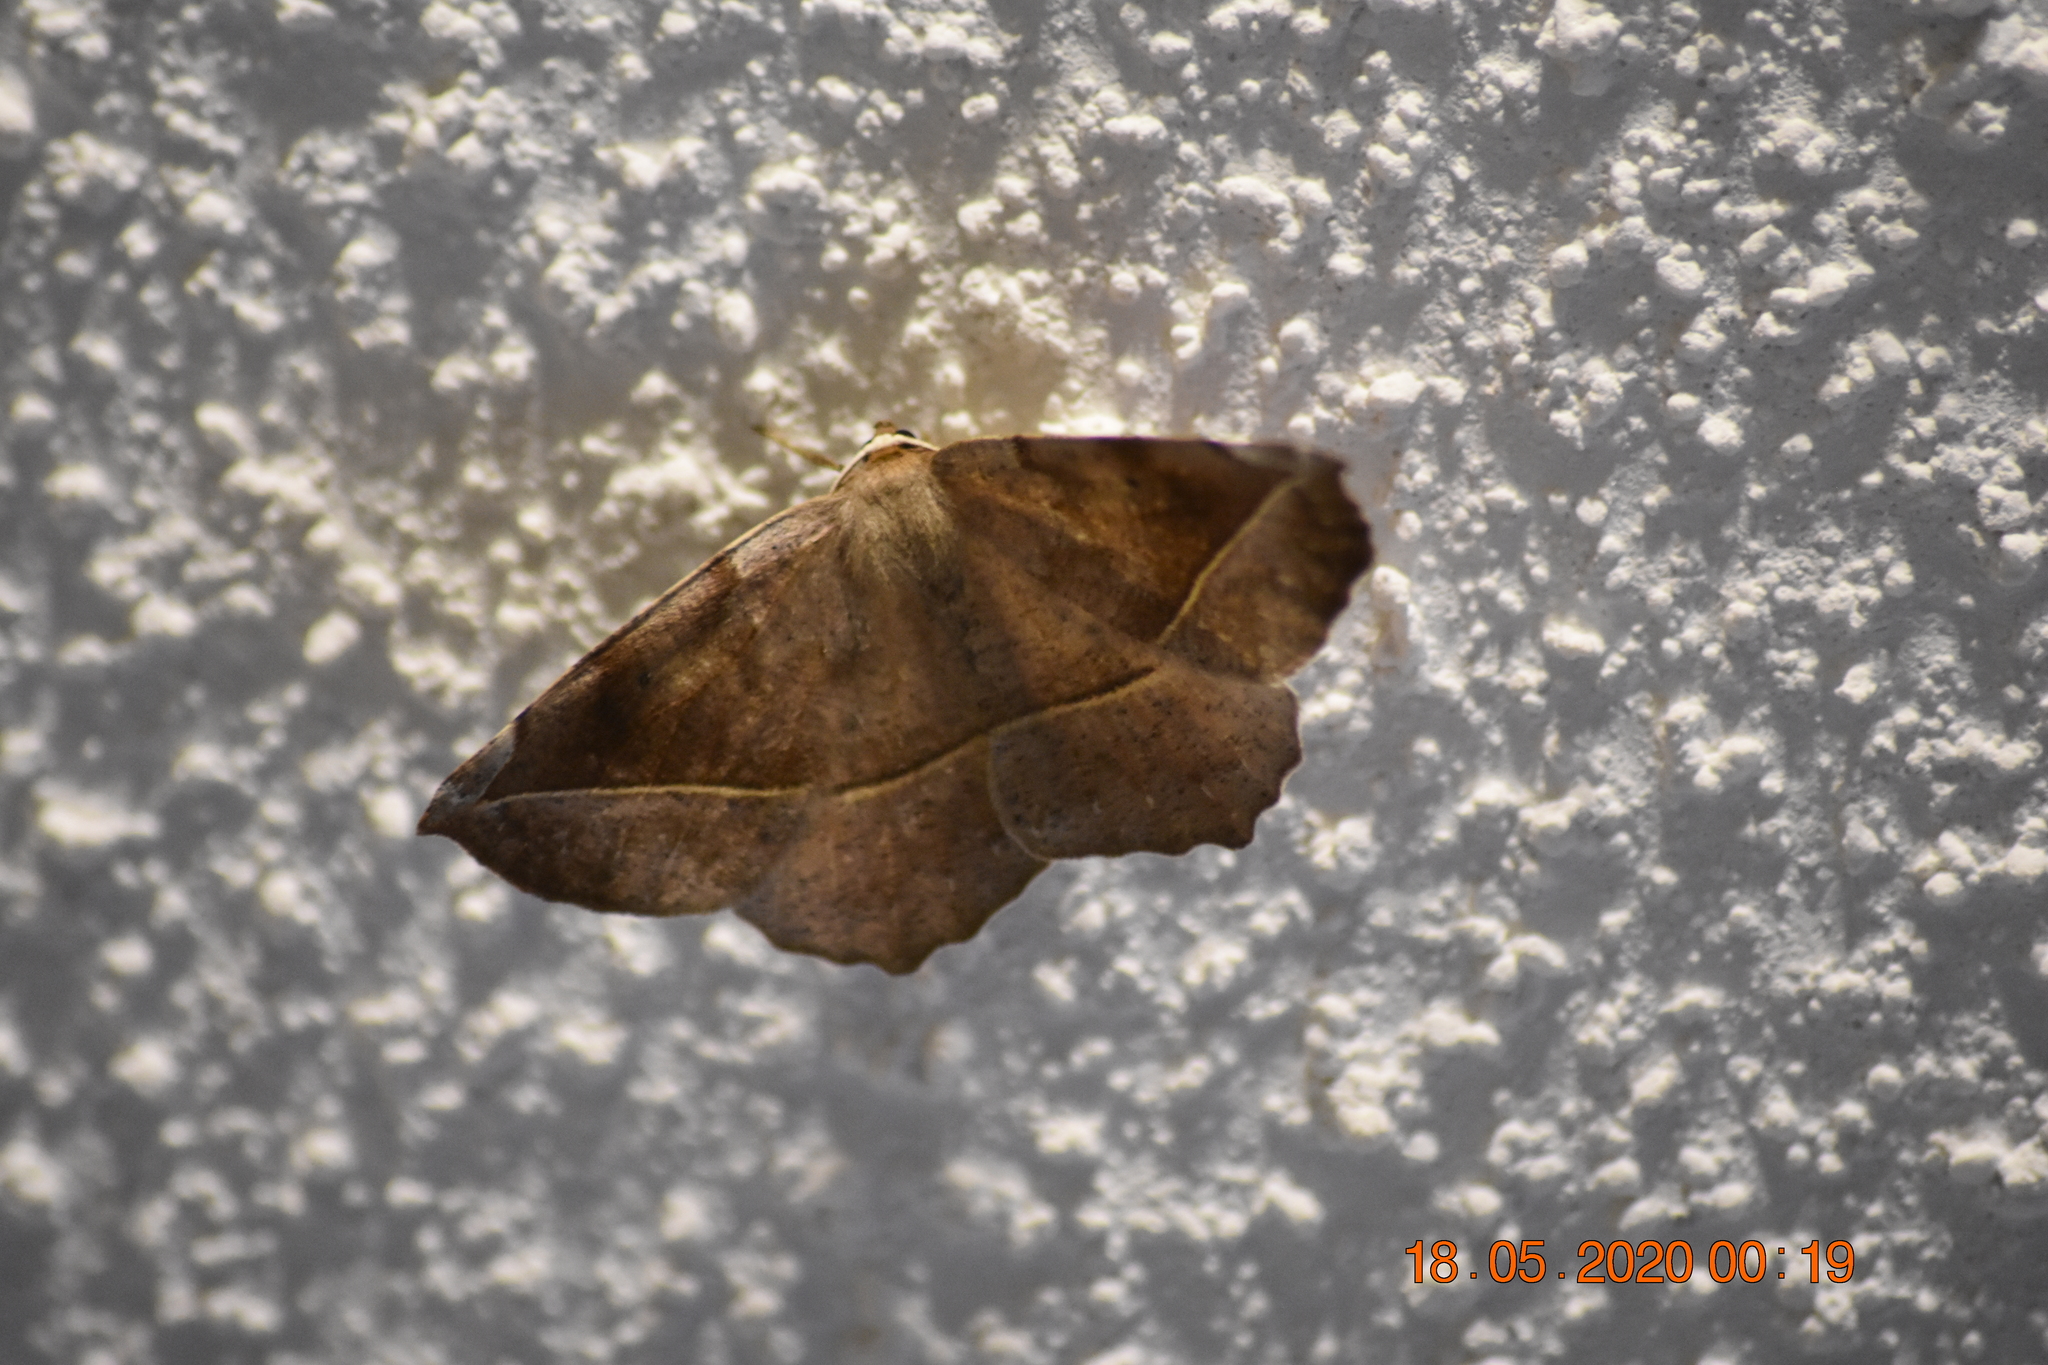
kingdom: Animalia
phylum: Arthropoda
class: Insecta
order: Lepidoptera
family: Geometridae
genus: Eutrapela
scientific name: Eutrapela clemataria
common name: Curved-toothed geometer
